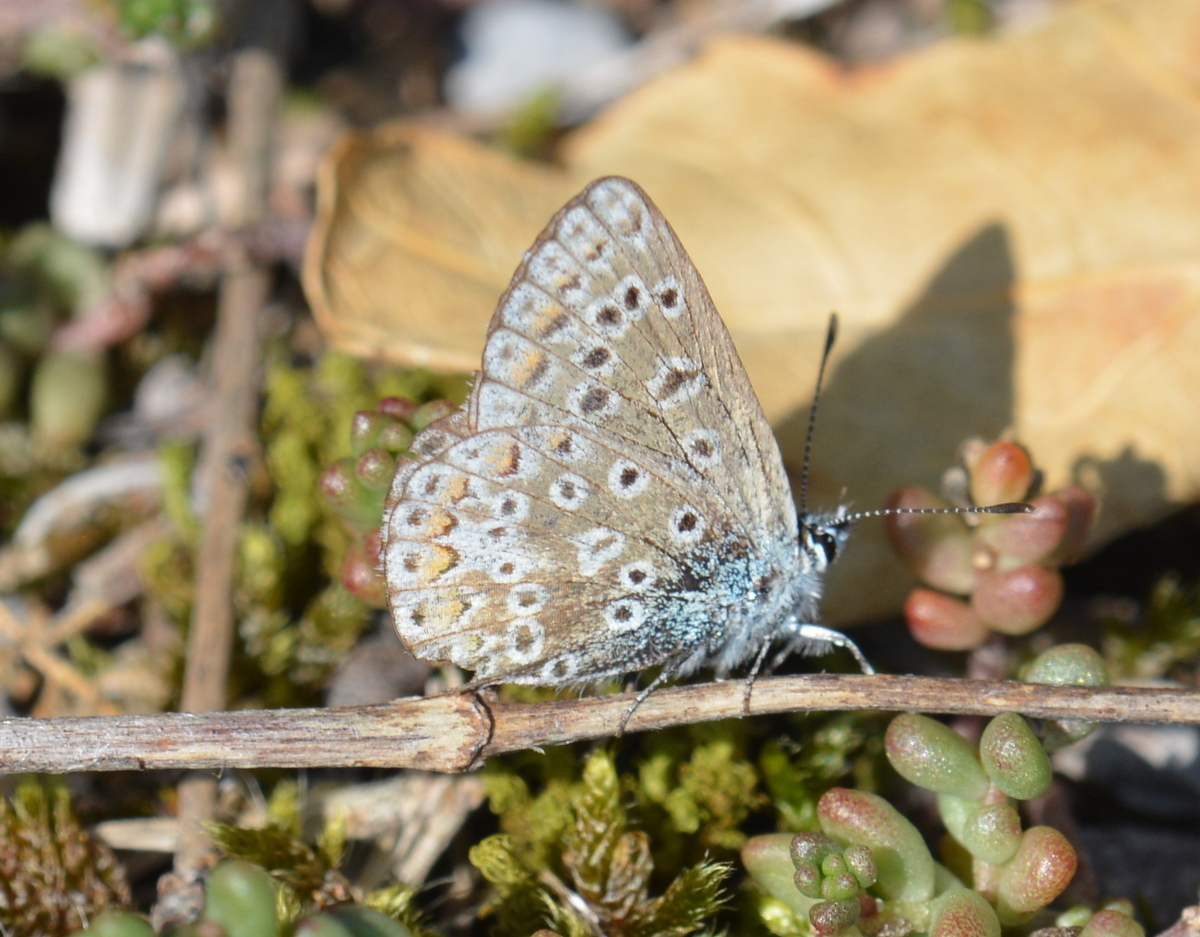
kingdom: Animalia
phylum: Arthropoda
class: Insecta
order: Lepidoptera
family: Lycaenidae
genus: Polyommatus
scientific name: Polyommatus icarus
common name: Common blue
